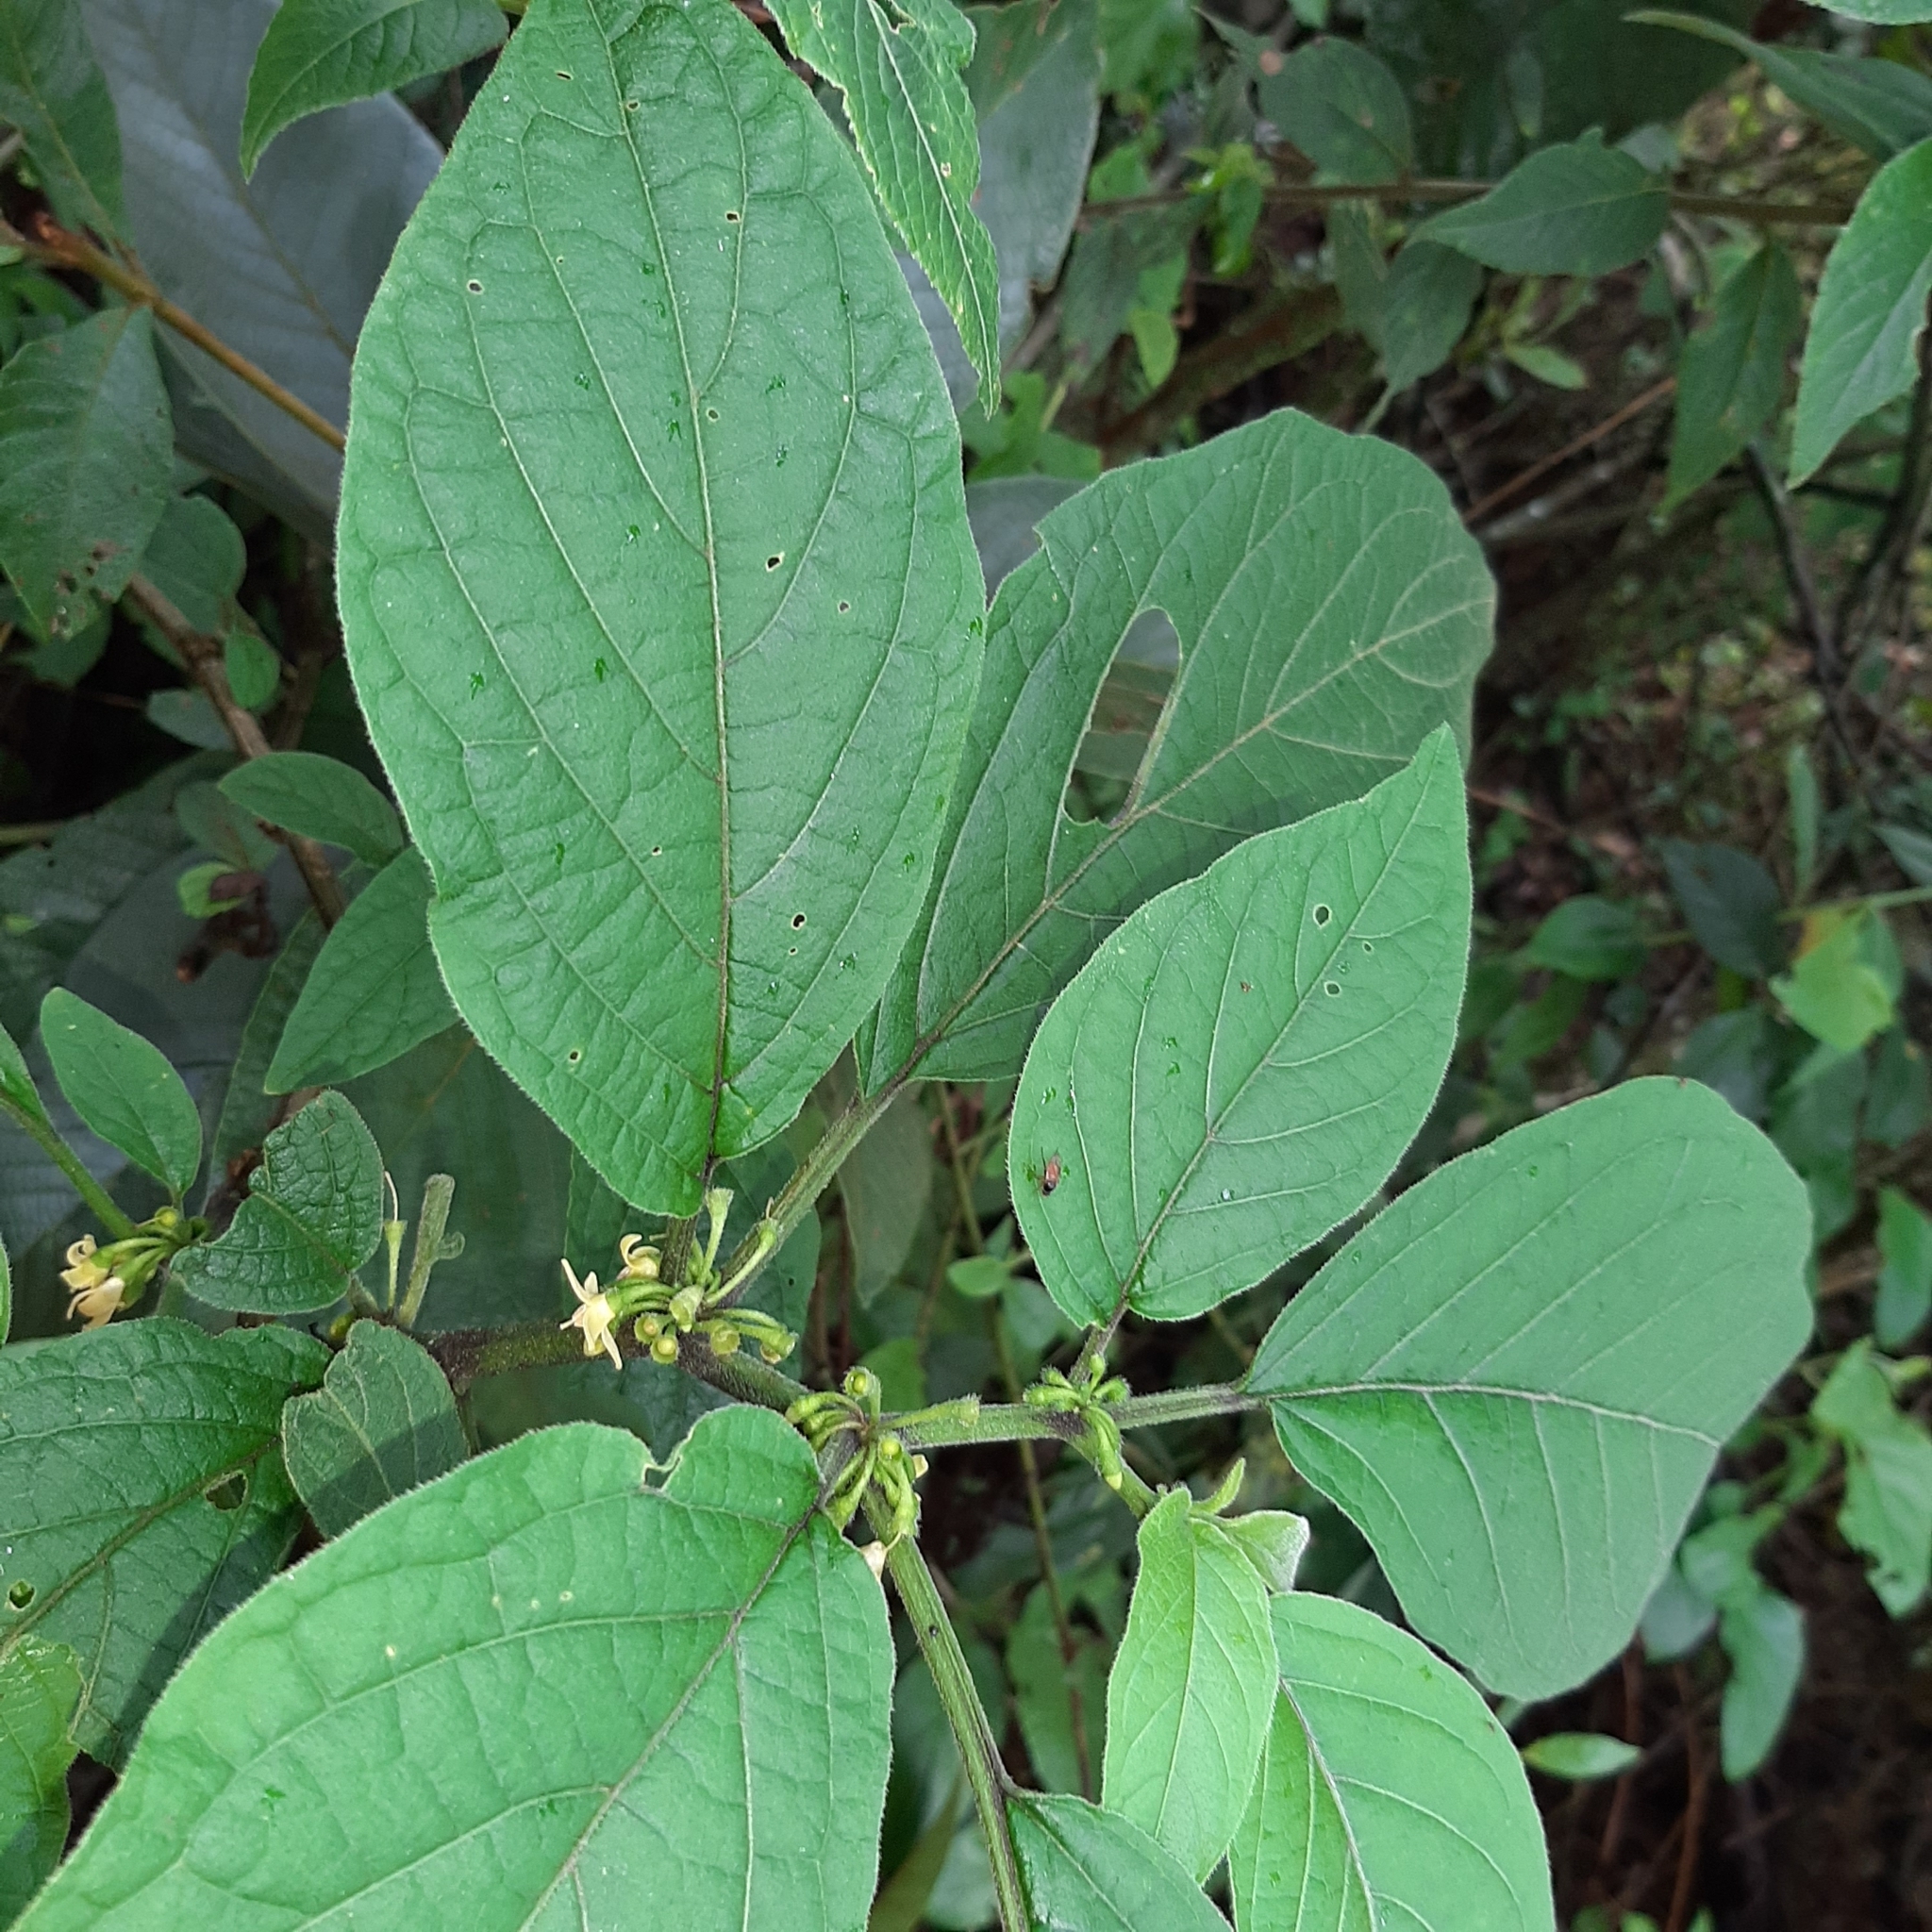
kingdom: Plantae
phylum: Tracheophyta
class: Magnoliopsida
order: Solanales
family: Solanaceae
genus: Witheringia
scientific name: Witheringia solanacea
